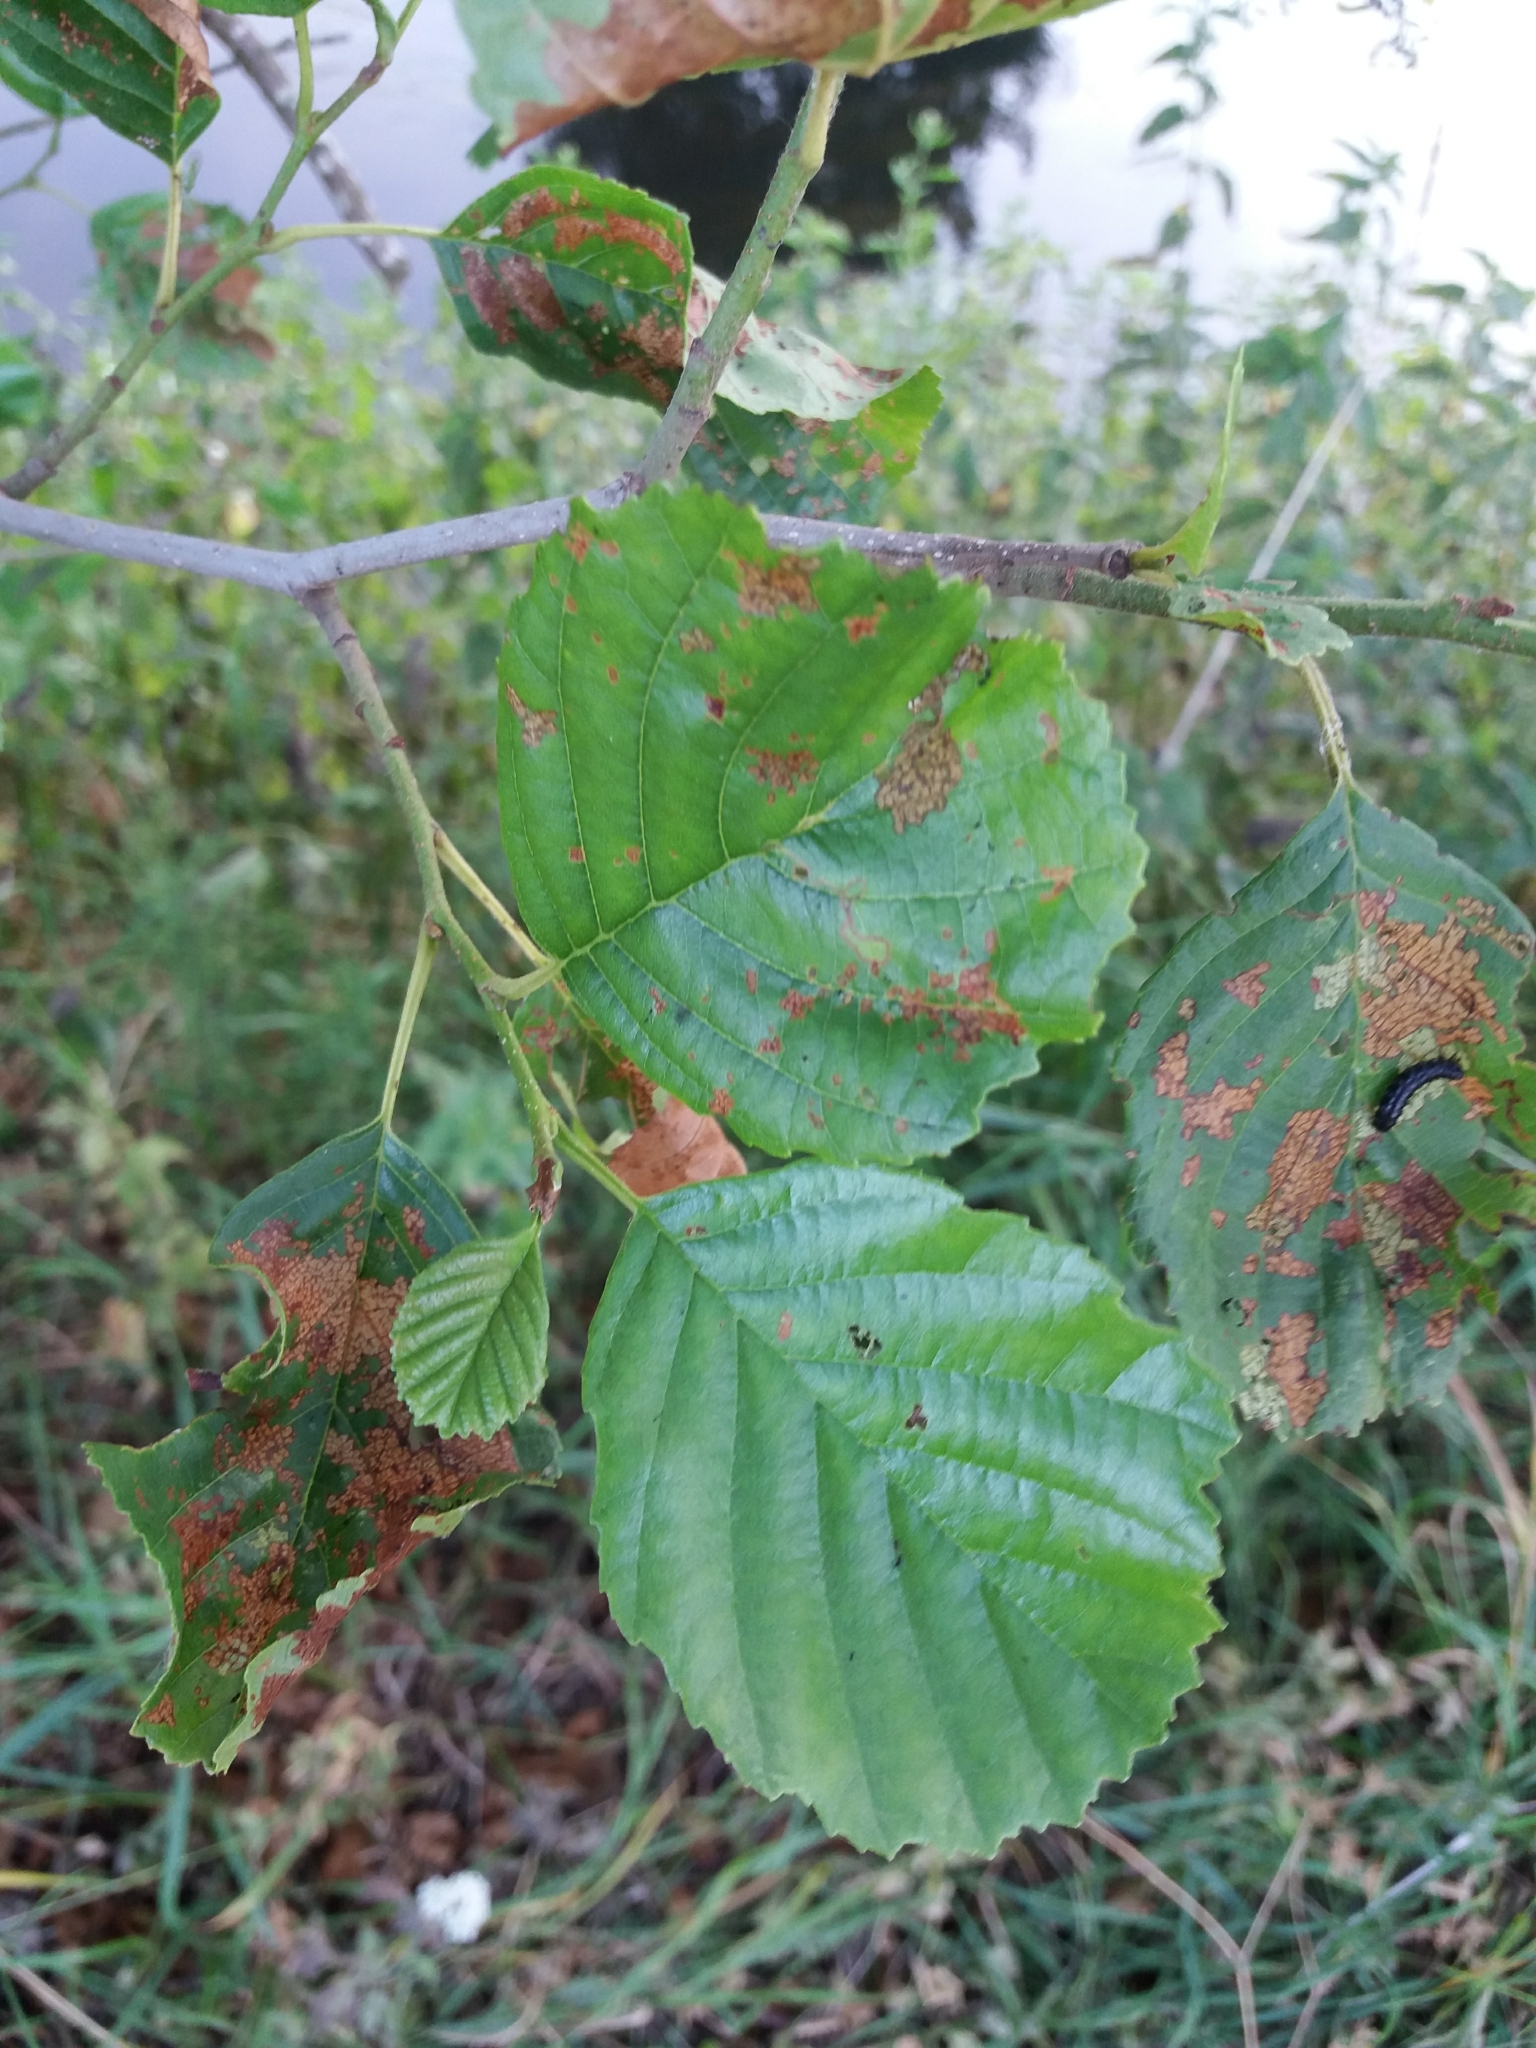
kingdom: Plantae
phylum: Tracheophyta
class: Magnoliopsida
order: Fagales
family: Betulaceae
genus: Alnus
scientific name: Alnus glutinosa
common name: Black alder
